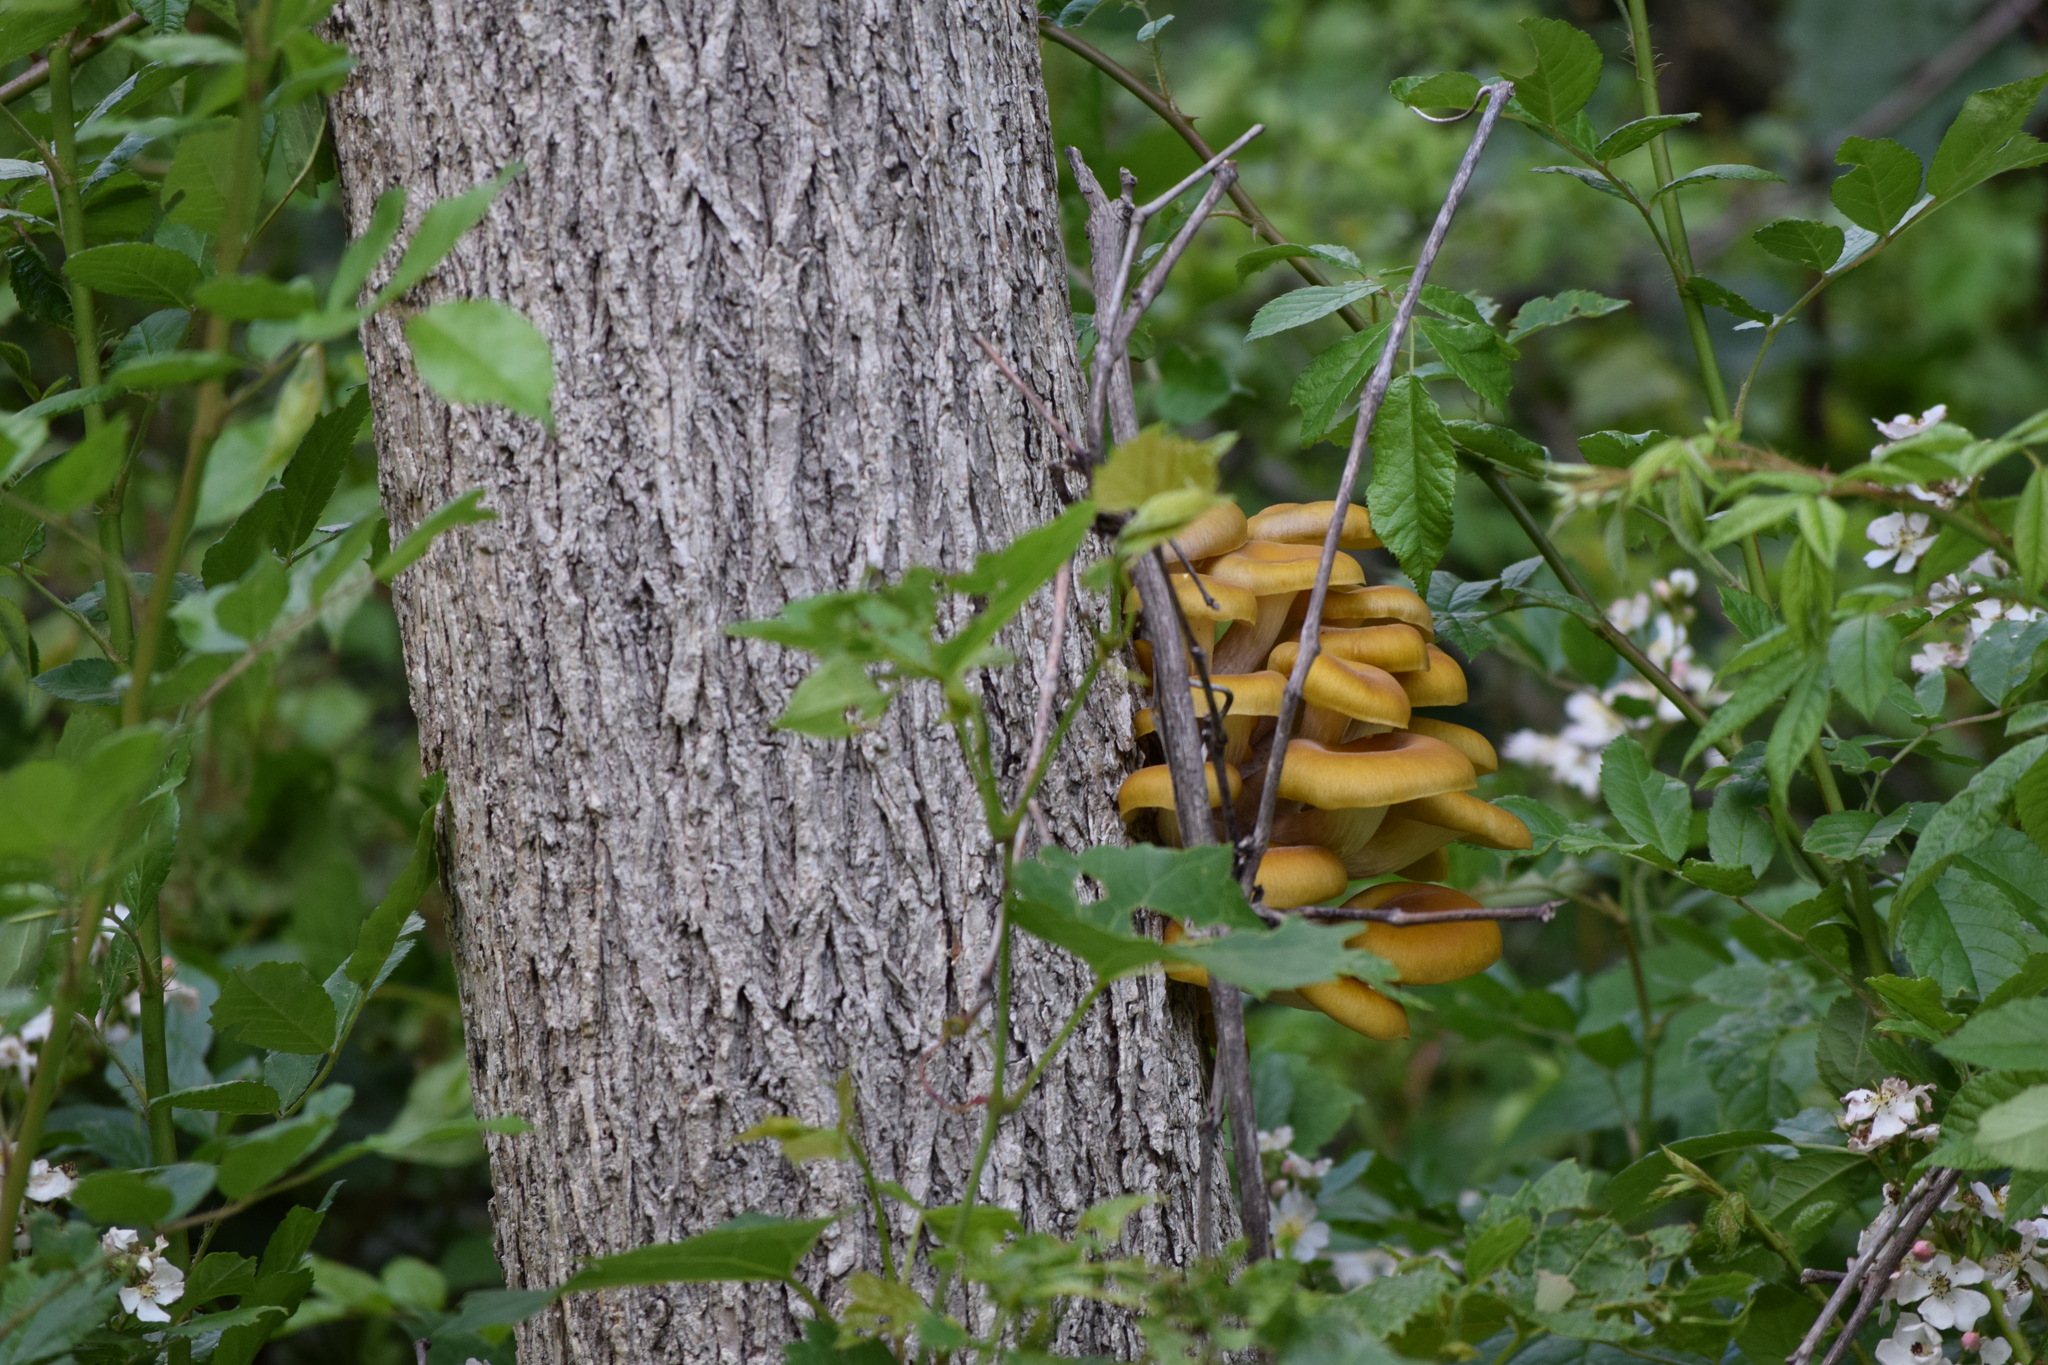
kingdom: Fungi
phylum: Basidiomycota
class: Agaricomycetes
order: Agaricales
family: Pleurotaceae
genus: Pleurotus
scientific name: Pleurotus citrinopileatus
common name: Golden oyster mushroom
